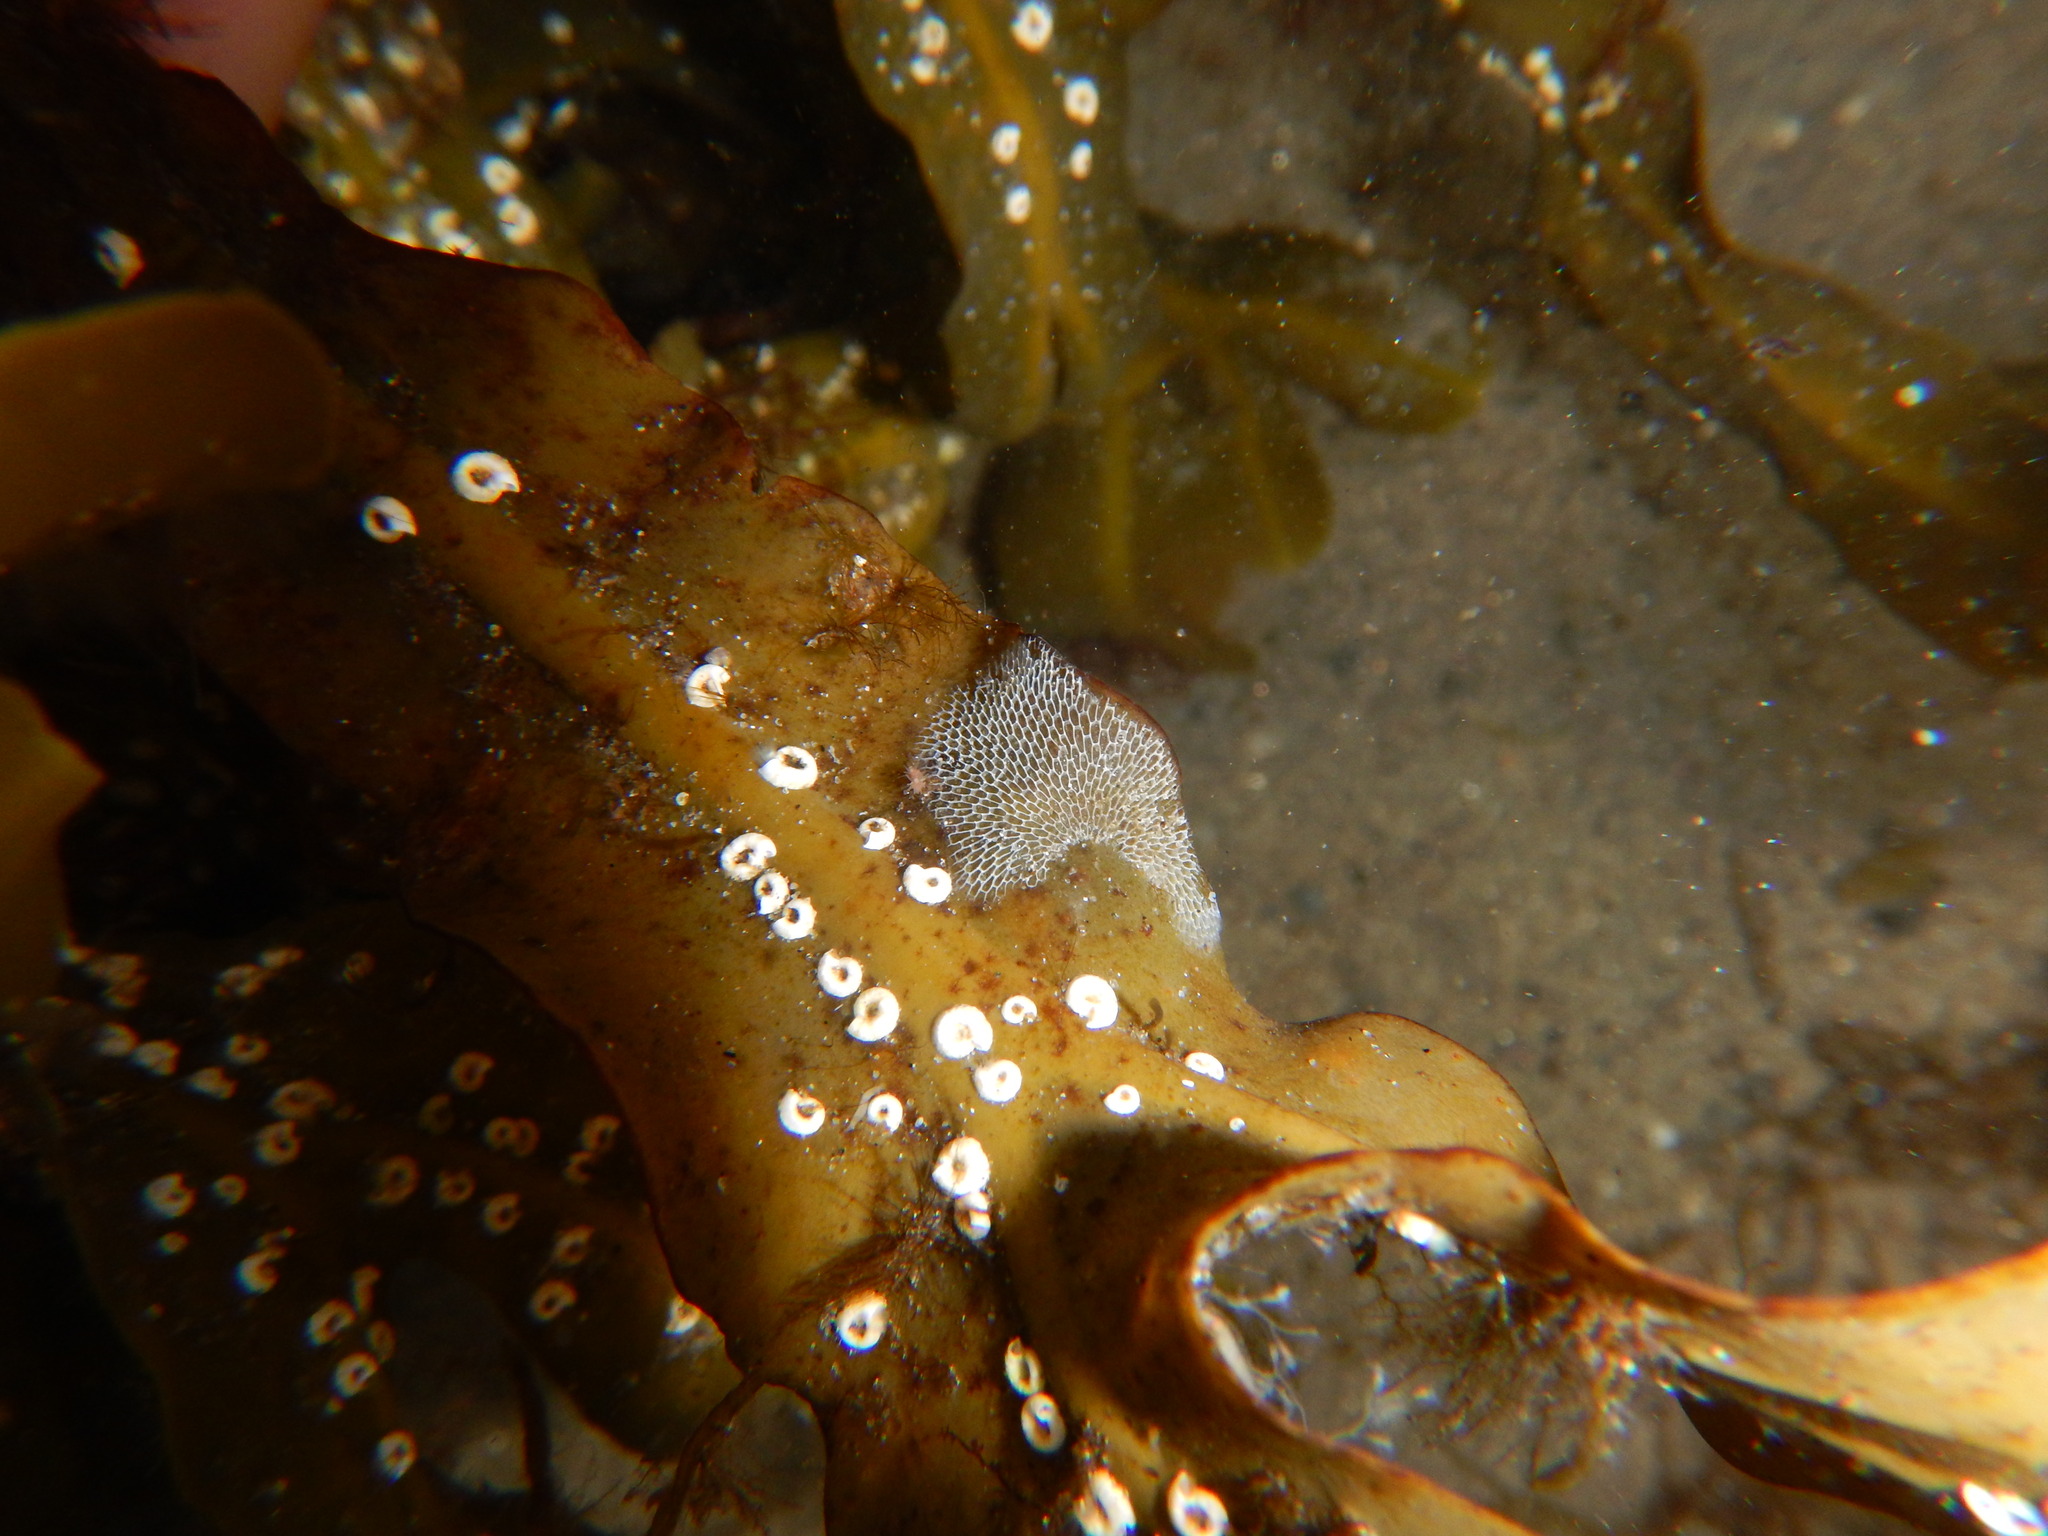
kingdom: Animalia
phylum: Bryozoa
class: Gymnolaemata
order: Cheilostomatida
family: Membraniporidae
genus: Membranipora
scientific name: Membranipora membranacea
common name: Sea mat
